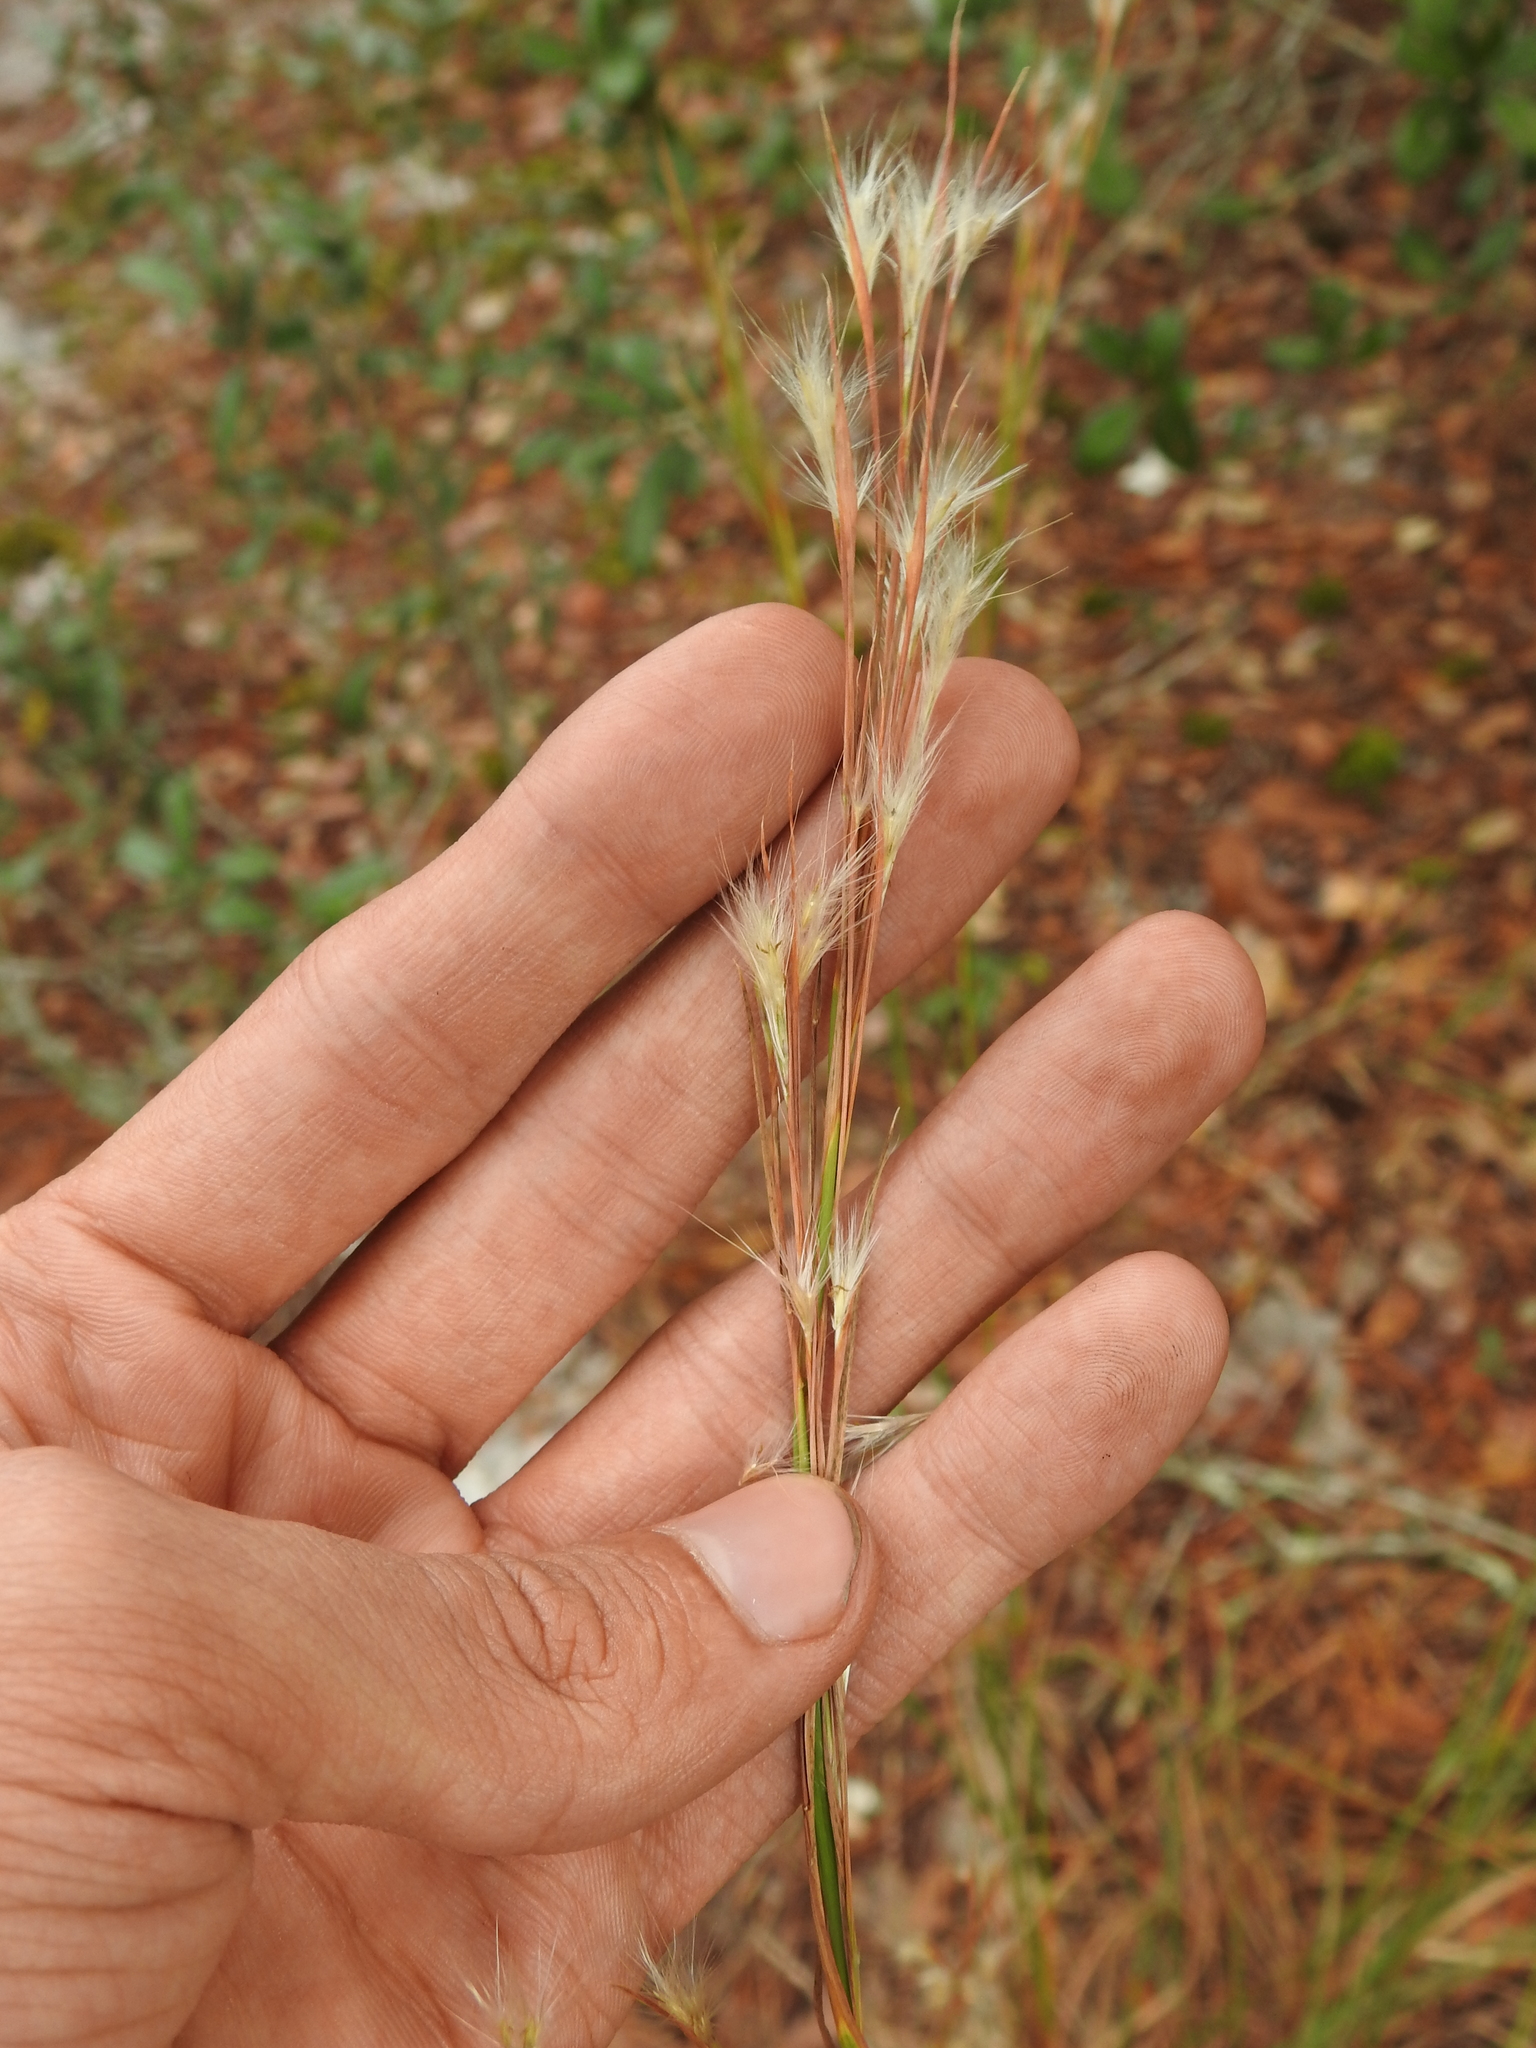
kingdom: Plantae
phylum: Tracheophyta
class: Liliopsida
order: Poales
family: Poaceae
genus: Andropogon
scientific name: Andropogon floridanus
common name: Florida bluestem
